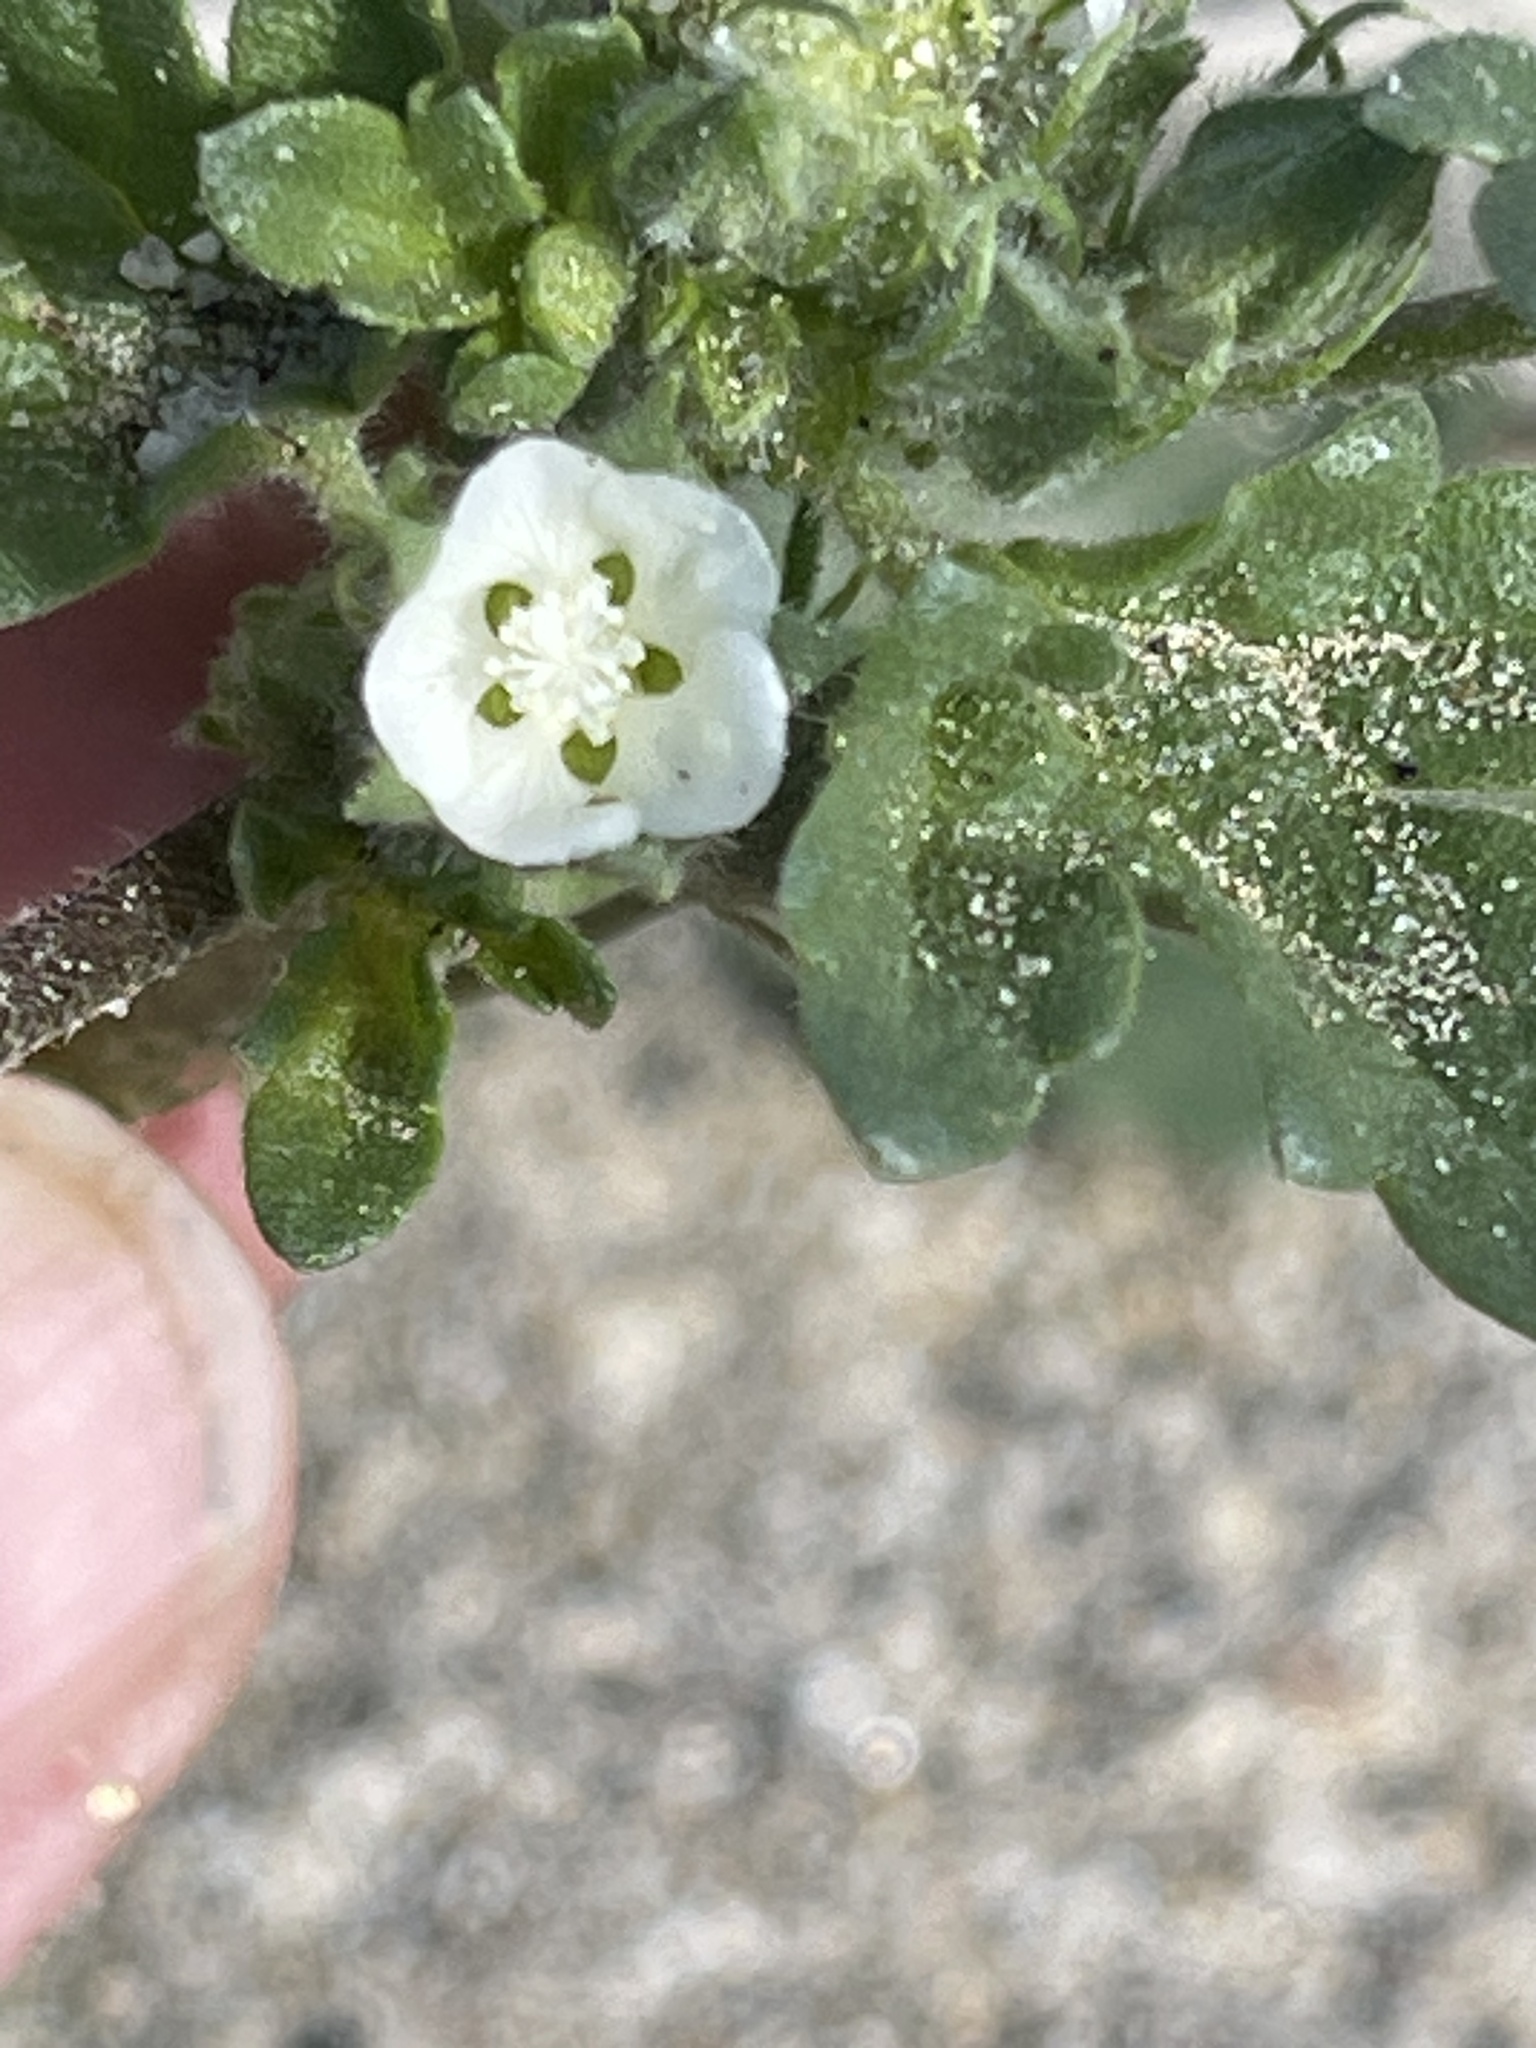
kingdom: Plantae
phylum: Tracheophyta
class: Magnoliopsida
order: Malvales
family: Malvaceae
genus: Eremalche
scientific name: Eremalche exilis
